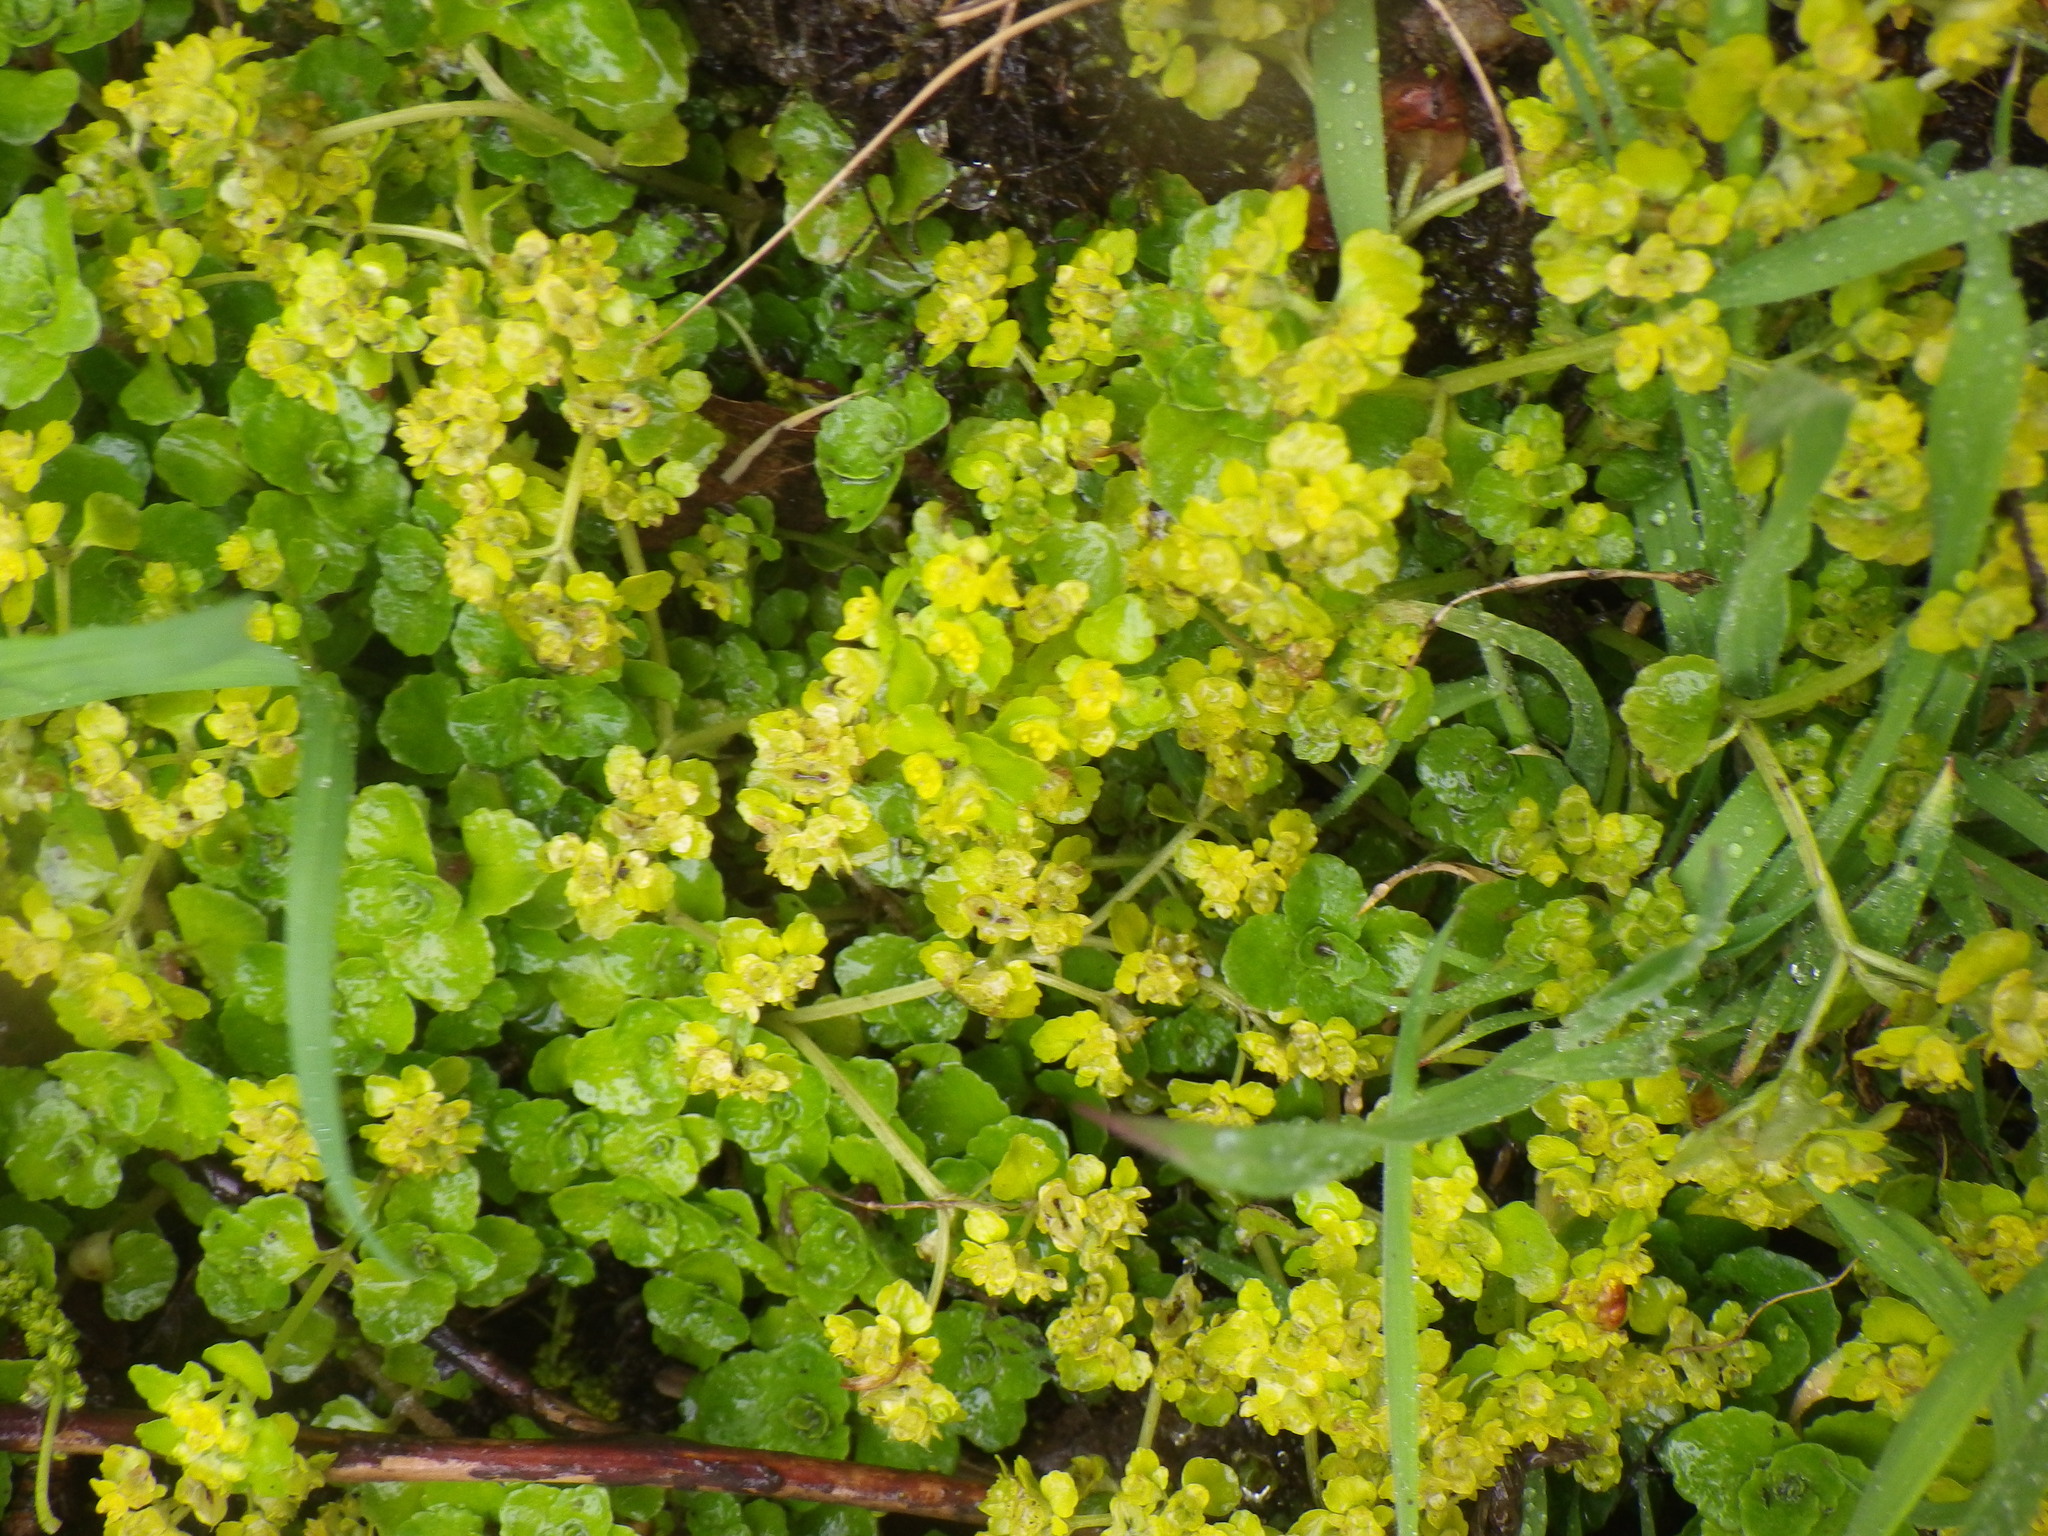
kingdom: Plantae
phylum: Tracheophyta
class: Magnoliopsida
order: Saxifragales
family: Saxifragaceae
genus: Chrysosplenium
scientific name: Chrysosplenium oppositifolium
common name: Opposite-leaved golden-saxifrage
